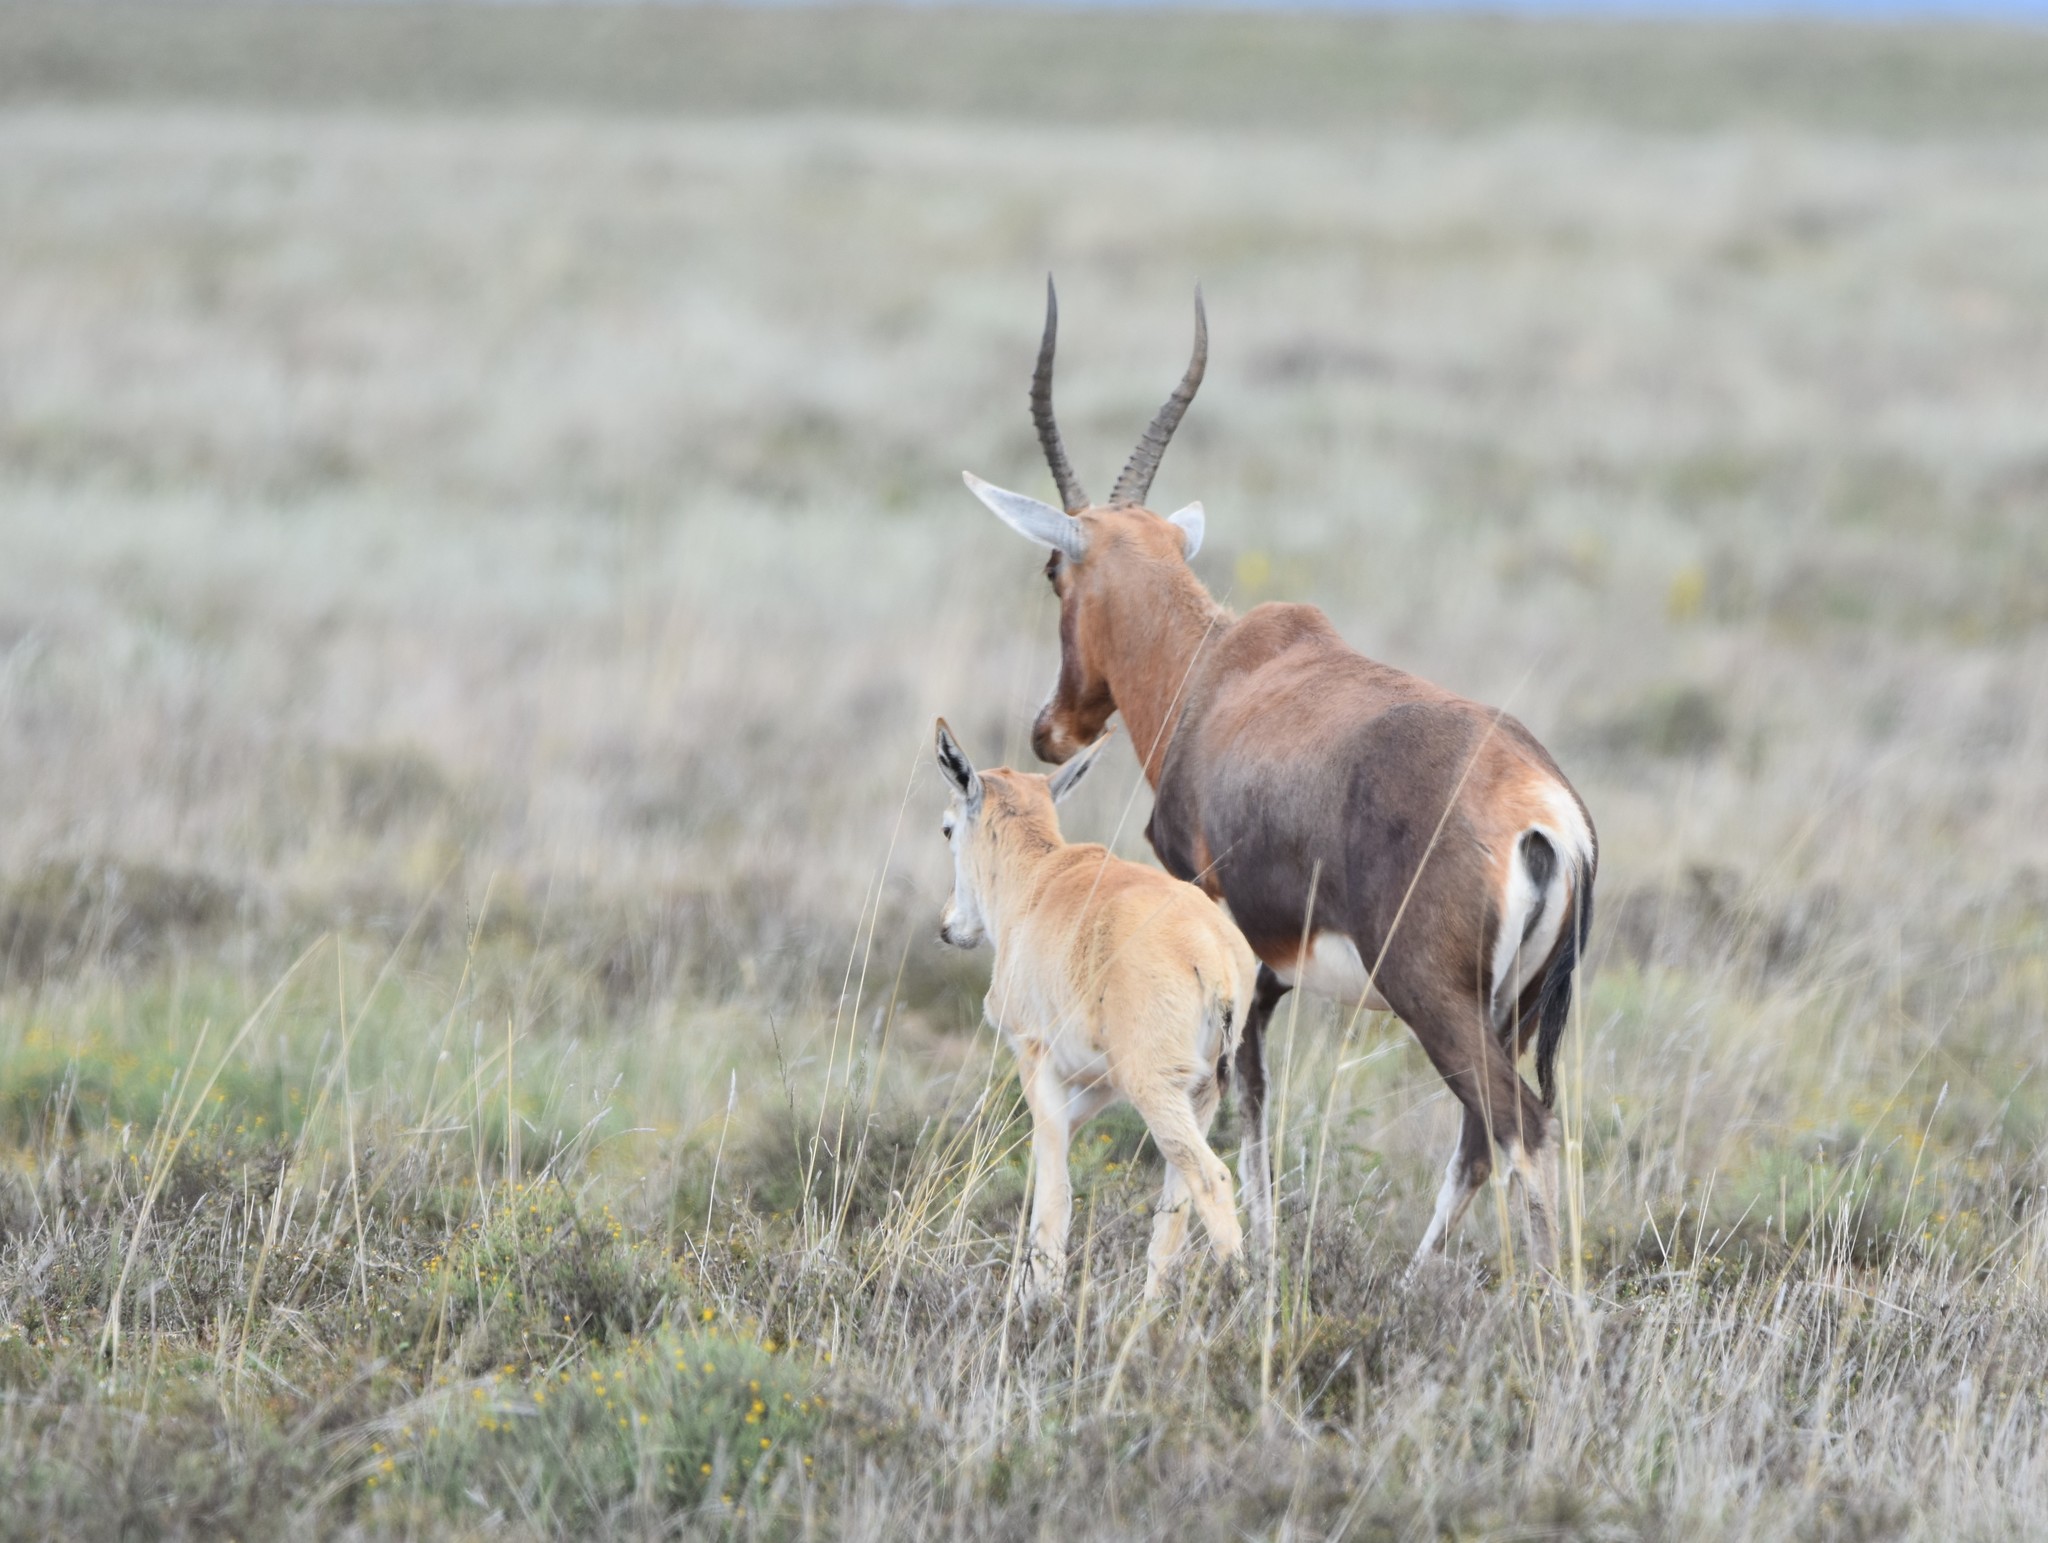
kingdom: Animalia
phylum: Chordata
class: Mammalia
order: Artiodactyla
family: Bovidae
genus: Damaliscus
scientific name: Damaliscus pygargus
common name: Bontebok
